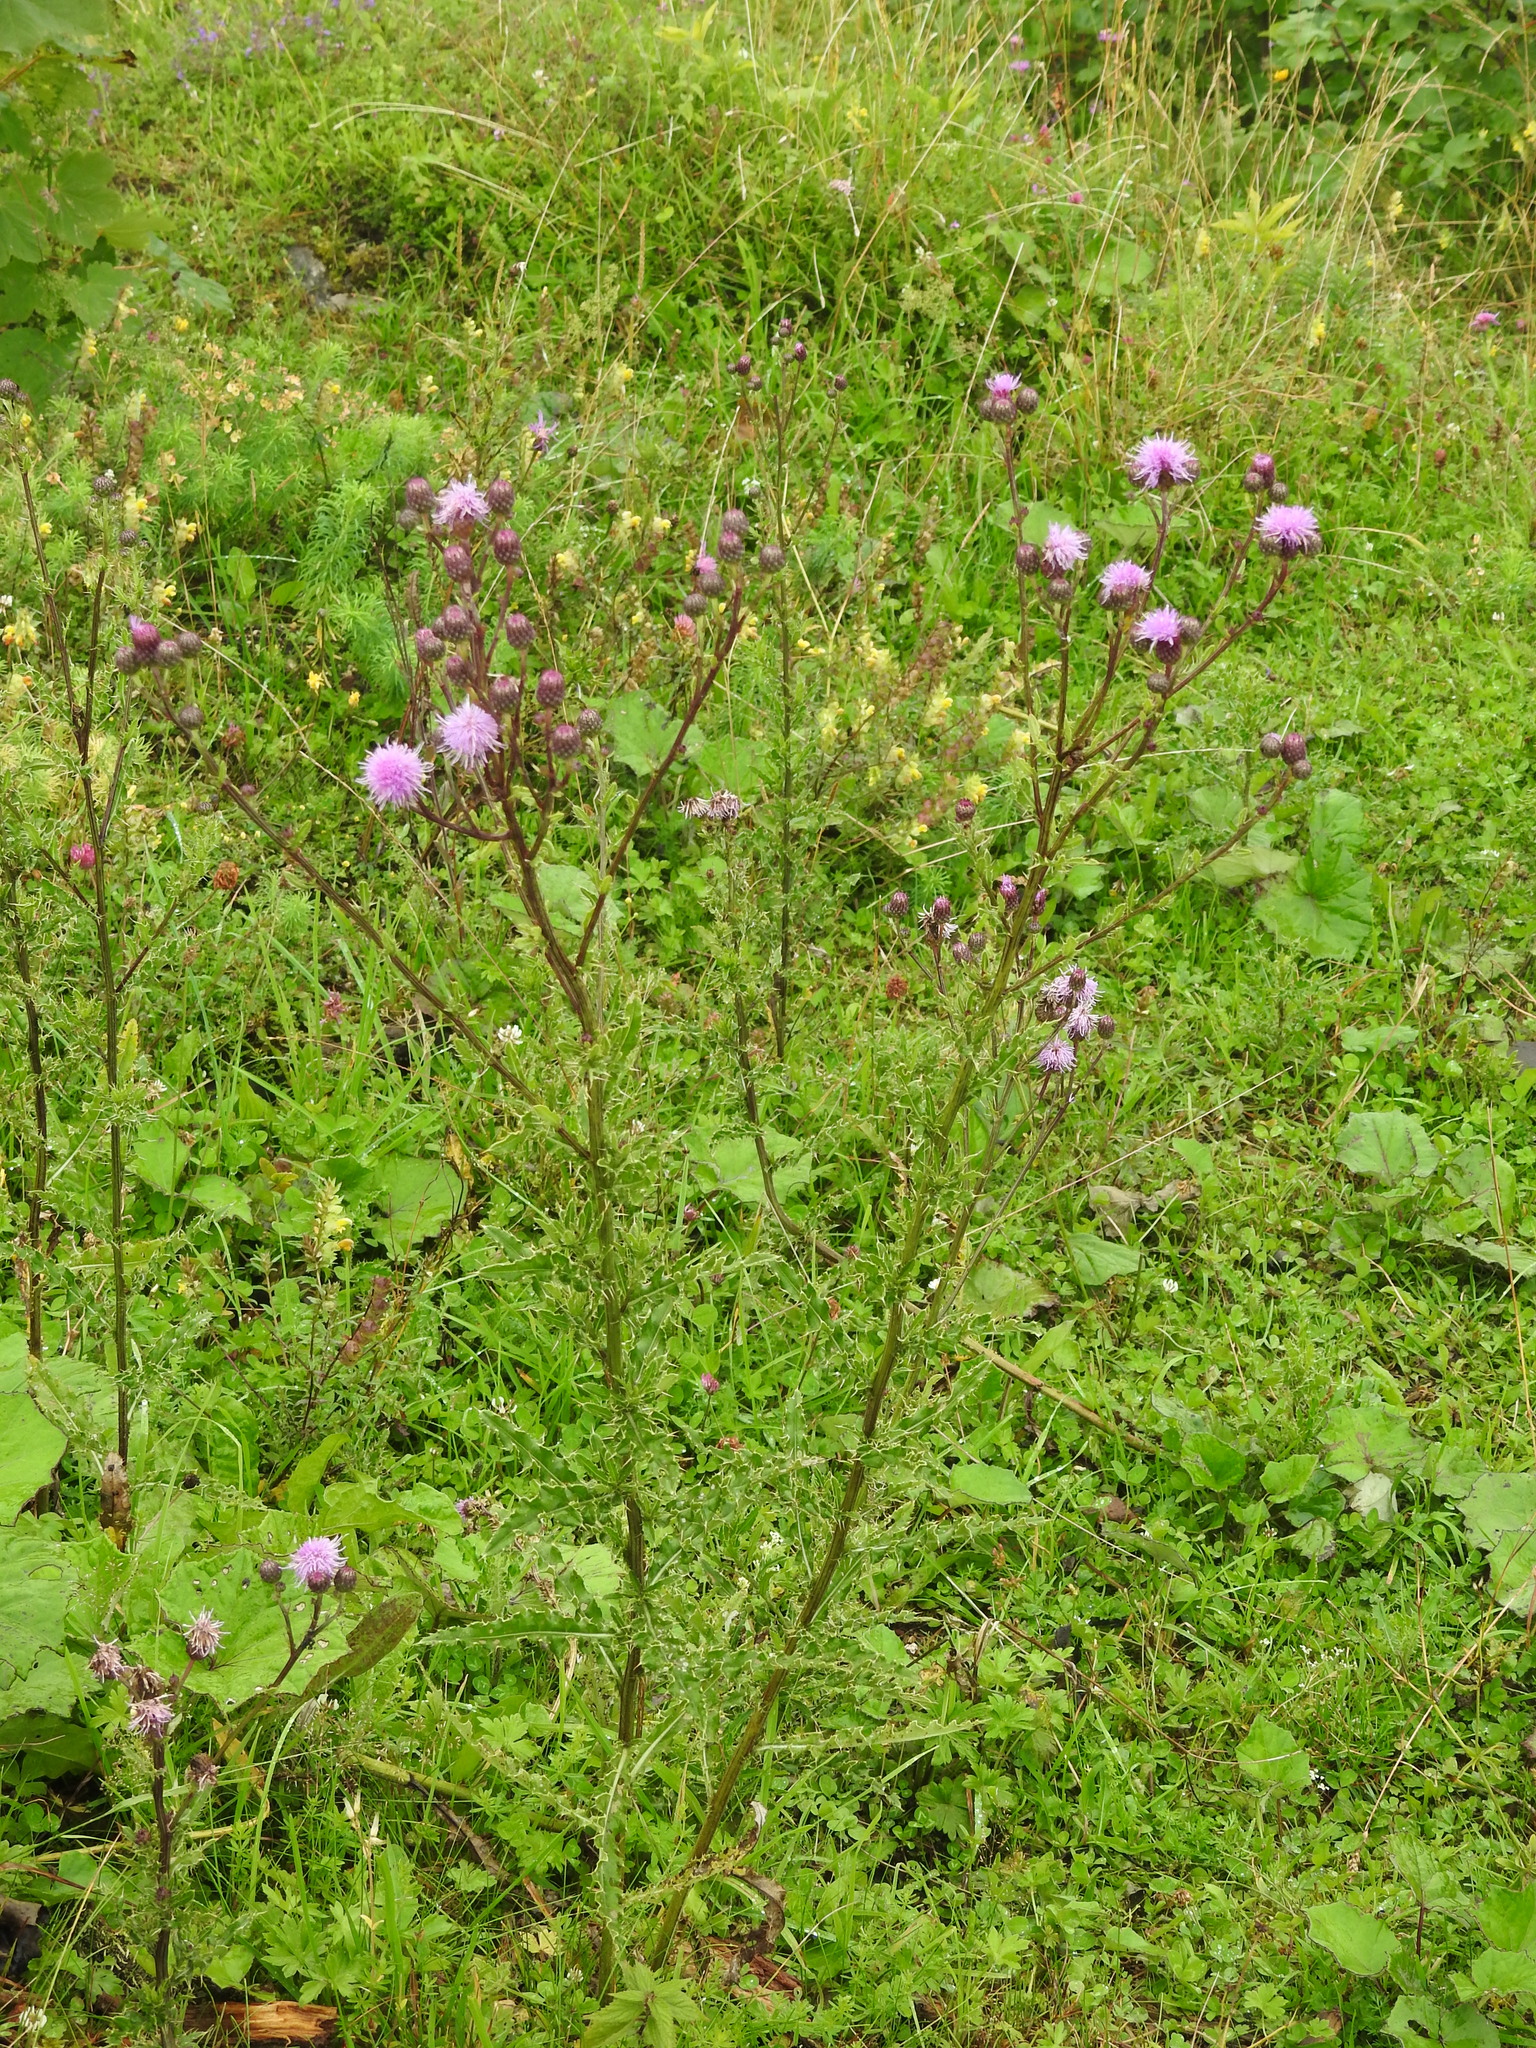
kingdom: Plantae
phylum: Tracheophyta
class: Magnoliopsida
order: Asterales
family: Asteraceae
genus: Cirsium
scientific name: Cirsium arvense
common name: Creeping thistle
